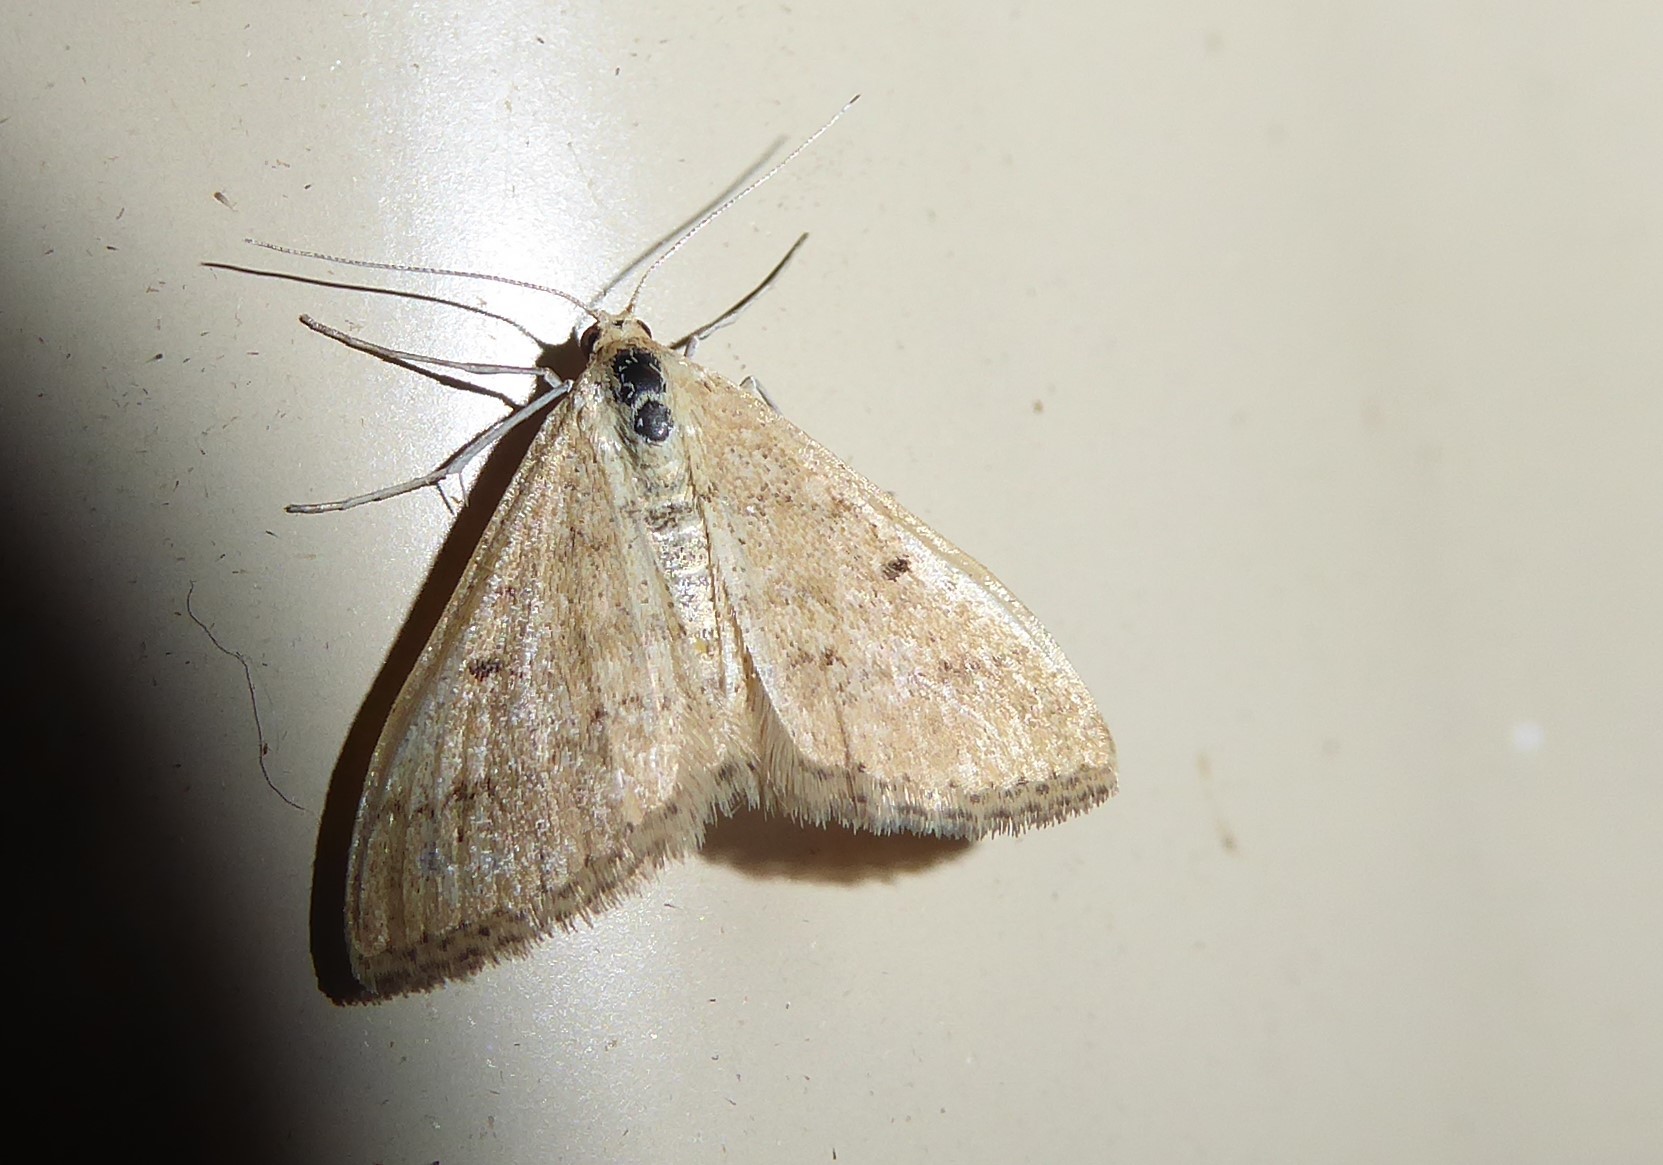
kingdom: Animalia
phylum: Arthropoda
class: Insecta
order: Lepidoptera
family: Geometridae
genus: Scopula
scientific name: Scopula lydia
